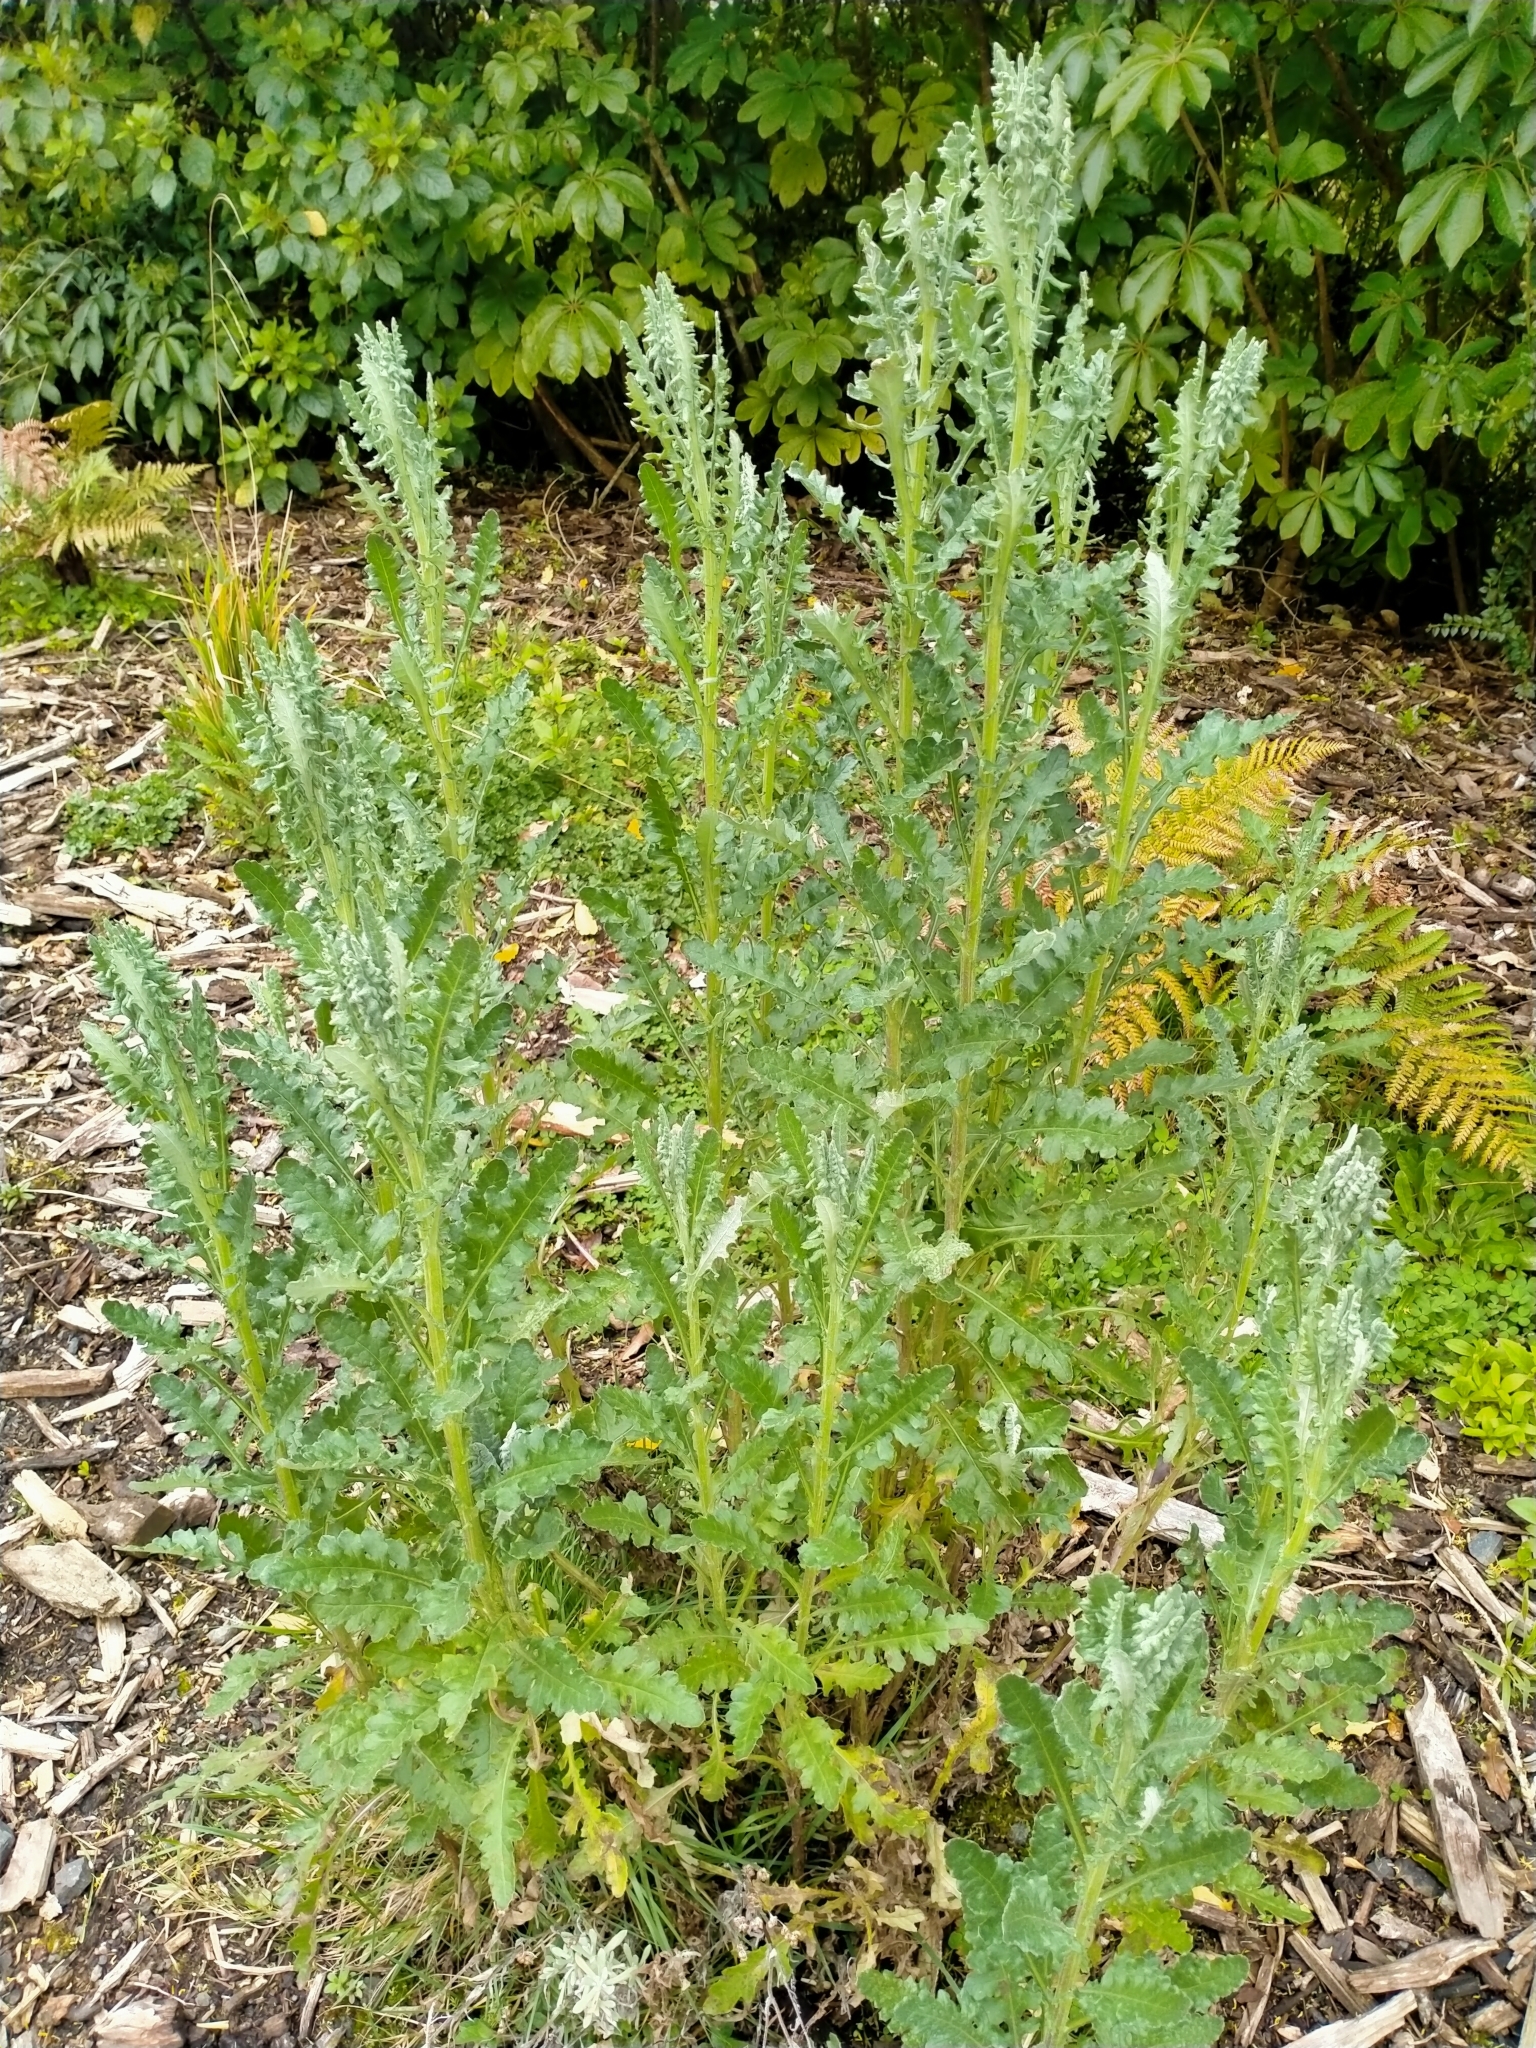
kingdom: Plantae
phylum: Tracheophyta
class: Magnoliopsida
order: Asterales
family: Asteraceae
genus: Senecio
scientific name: Senecio glomeratus
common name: Cutleaf burnweed
